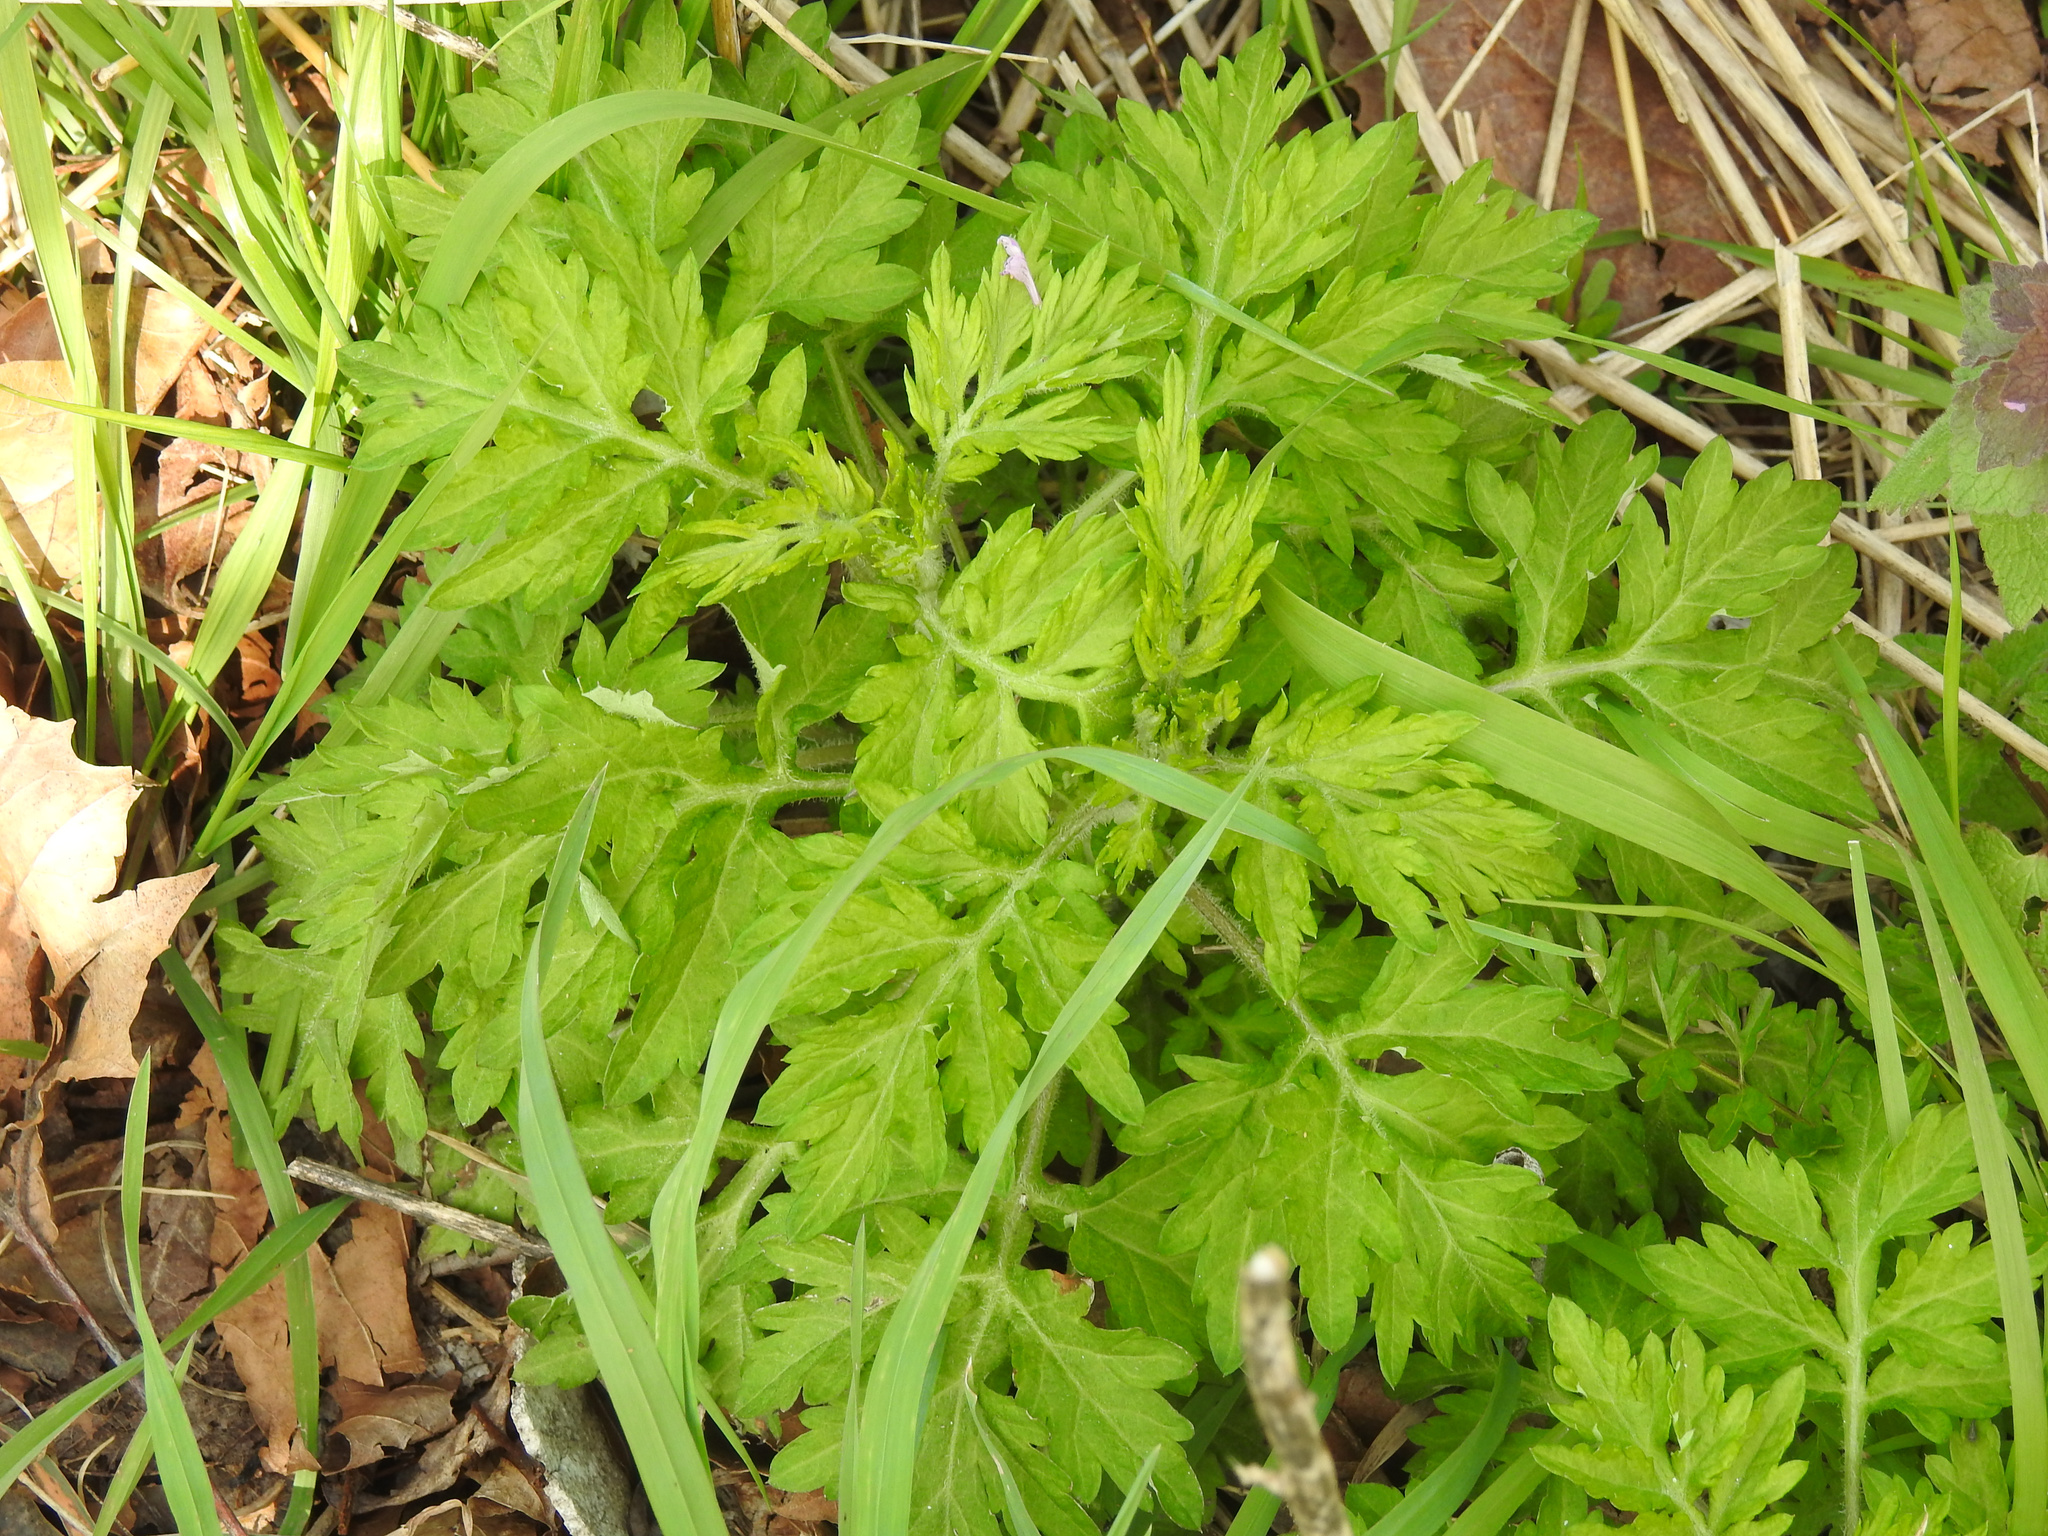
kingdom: Plantae
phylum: Tracheophyta
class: Magnoliopsida
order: Asterales
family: Asteraceae
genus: Artemisia
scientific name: Artemisia vulgaris
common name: Mugwort
